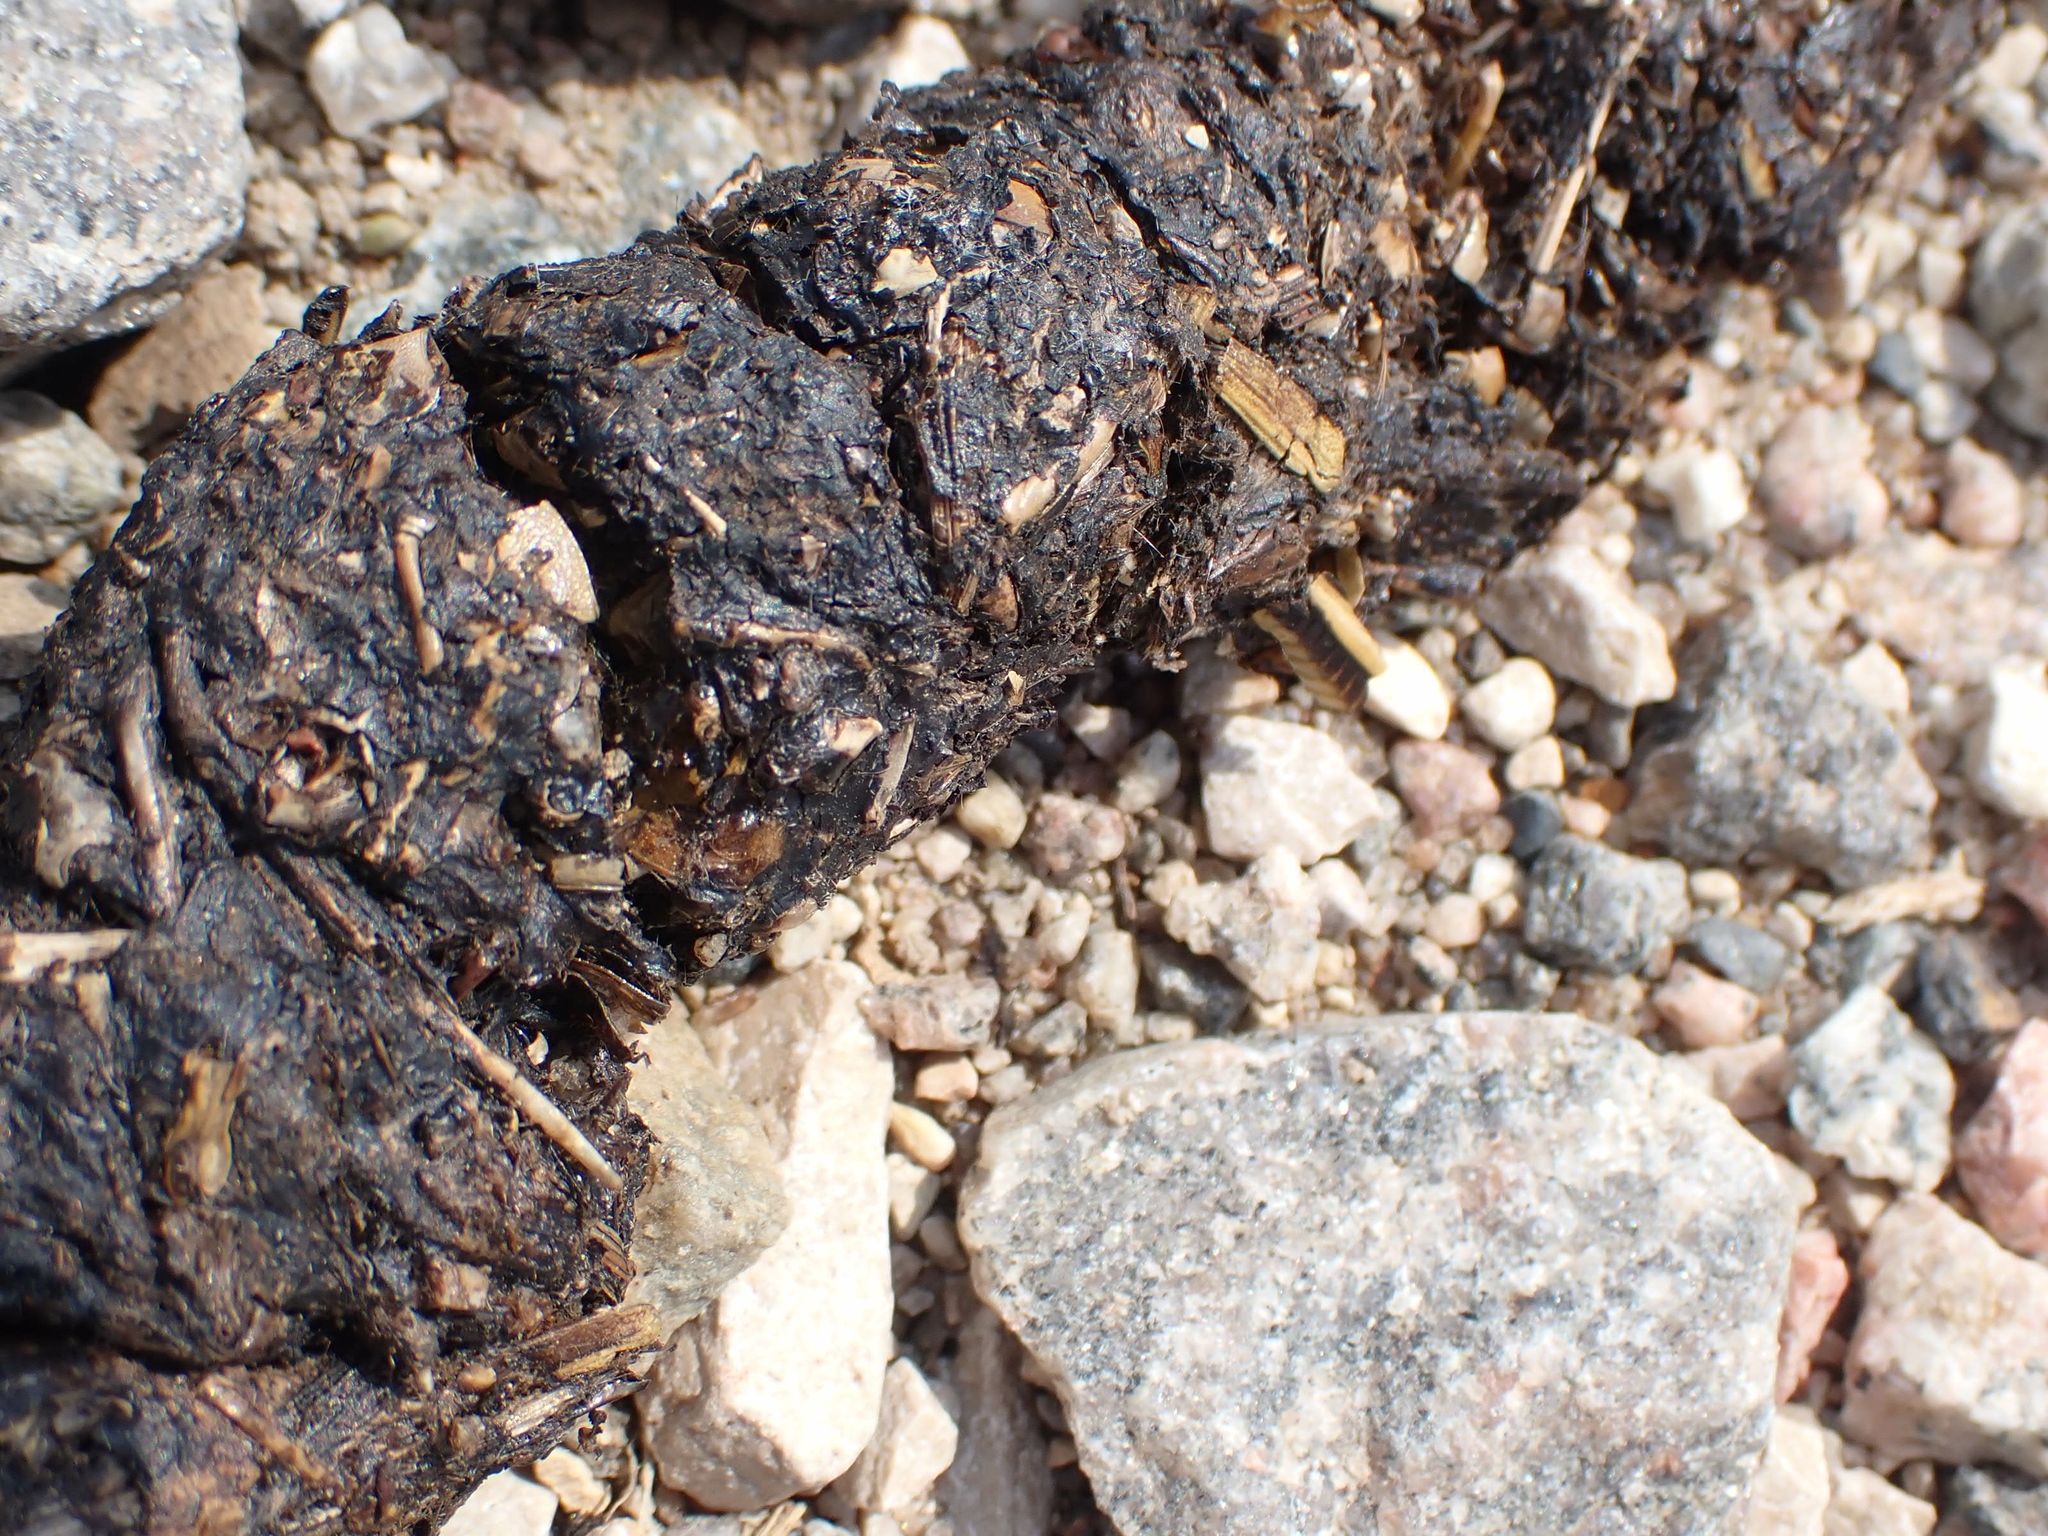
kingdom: Animalia
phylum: Chordata
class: Mammalia
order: Carnivora
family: Canidae
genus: Canis
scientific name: Canis latrans
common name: Coyote
